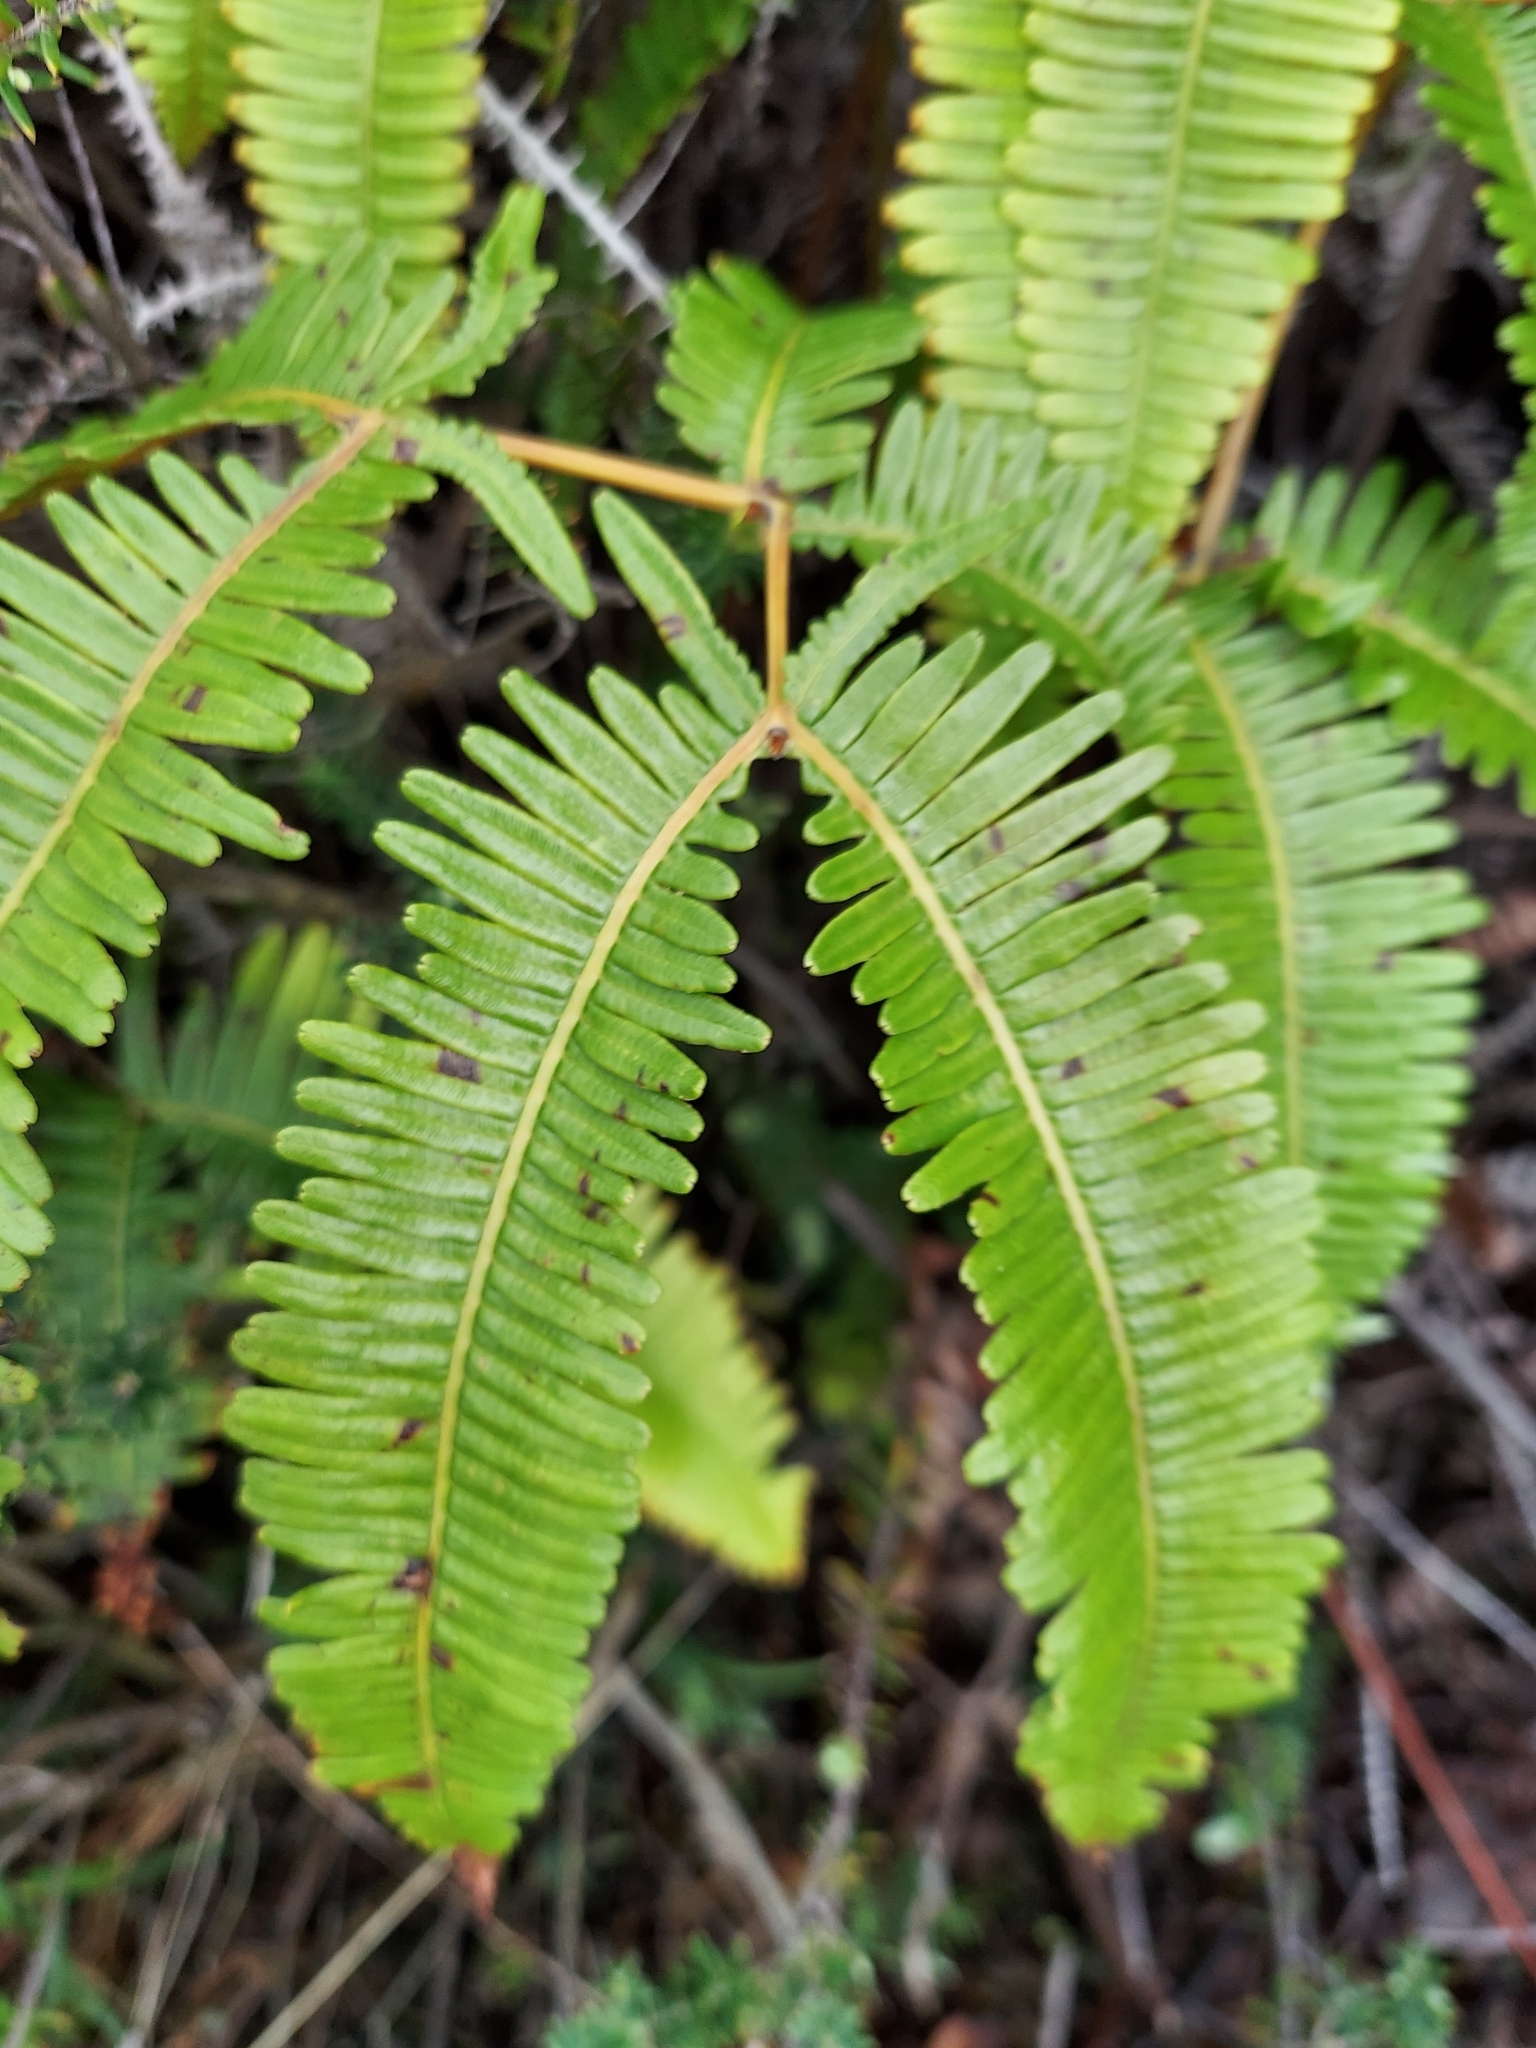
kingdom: Plantae
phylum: Tracheophyta
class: Polypodiopsida
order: Gleicheniales
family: Gleicheniaceae
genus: Dicranopteris
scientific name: Dicranopteris linearis
